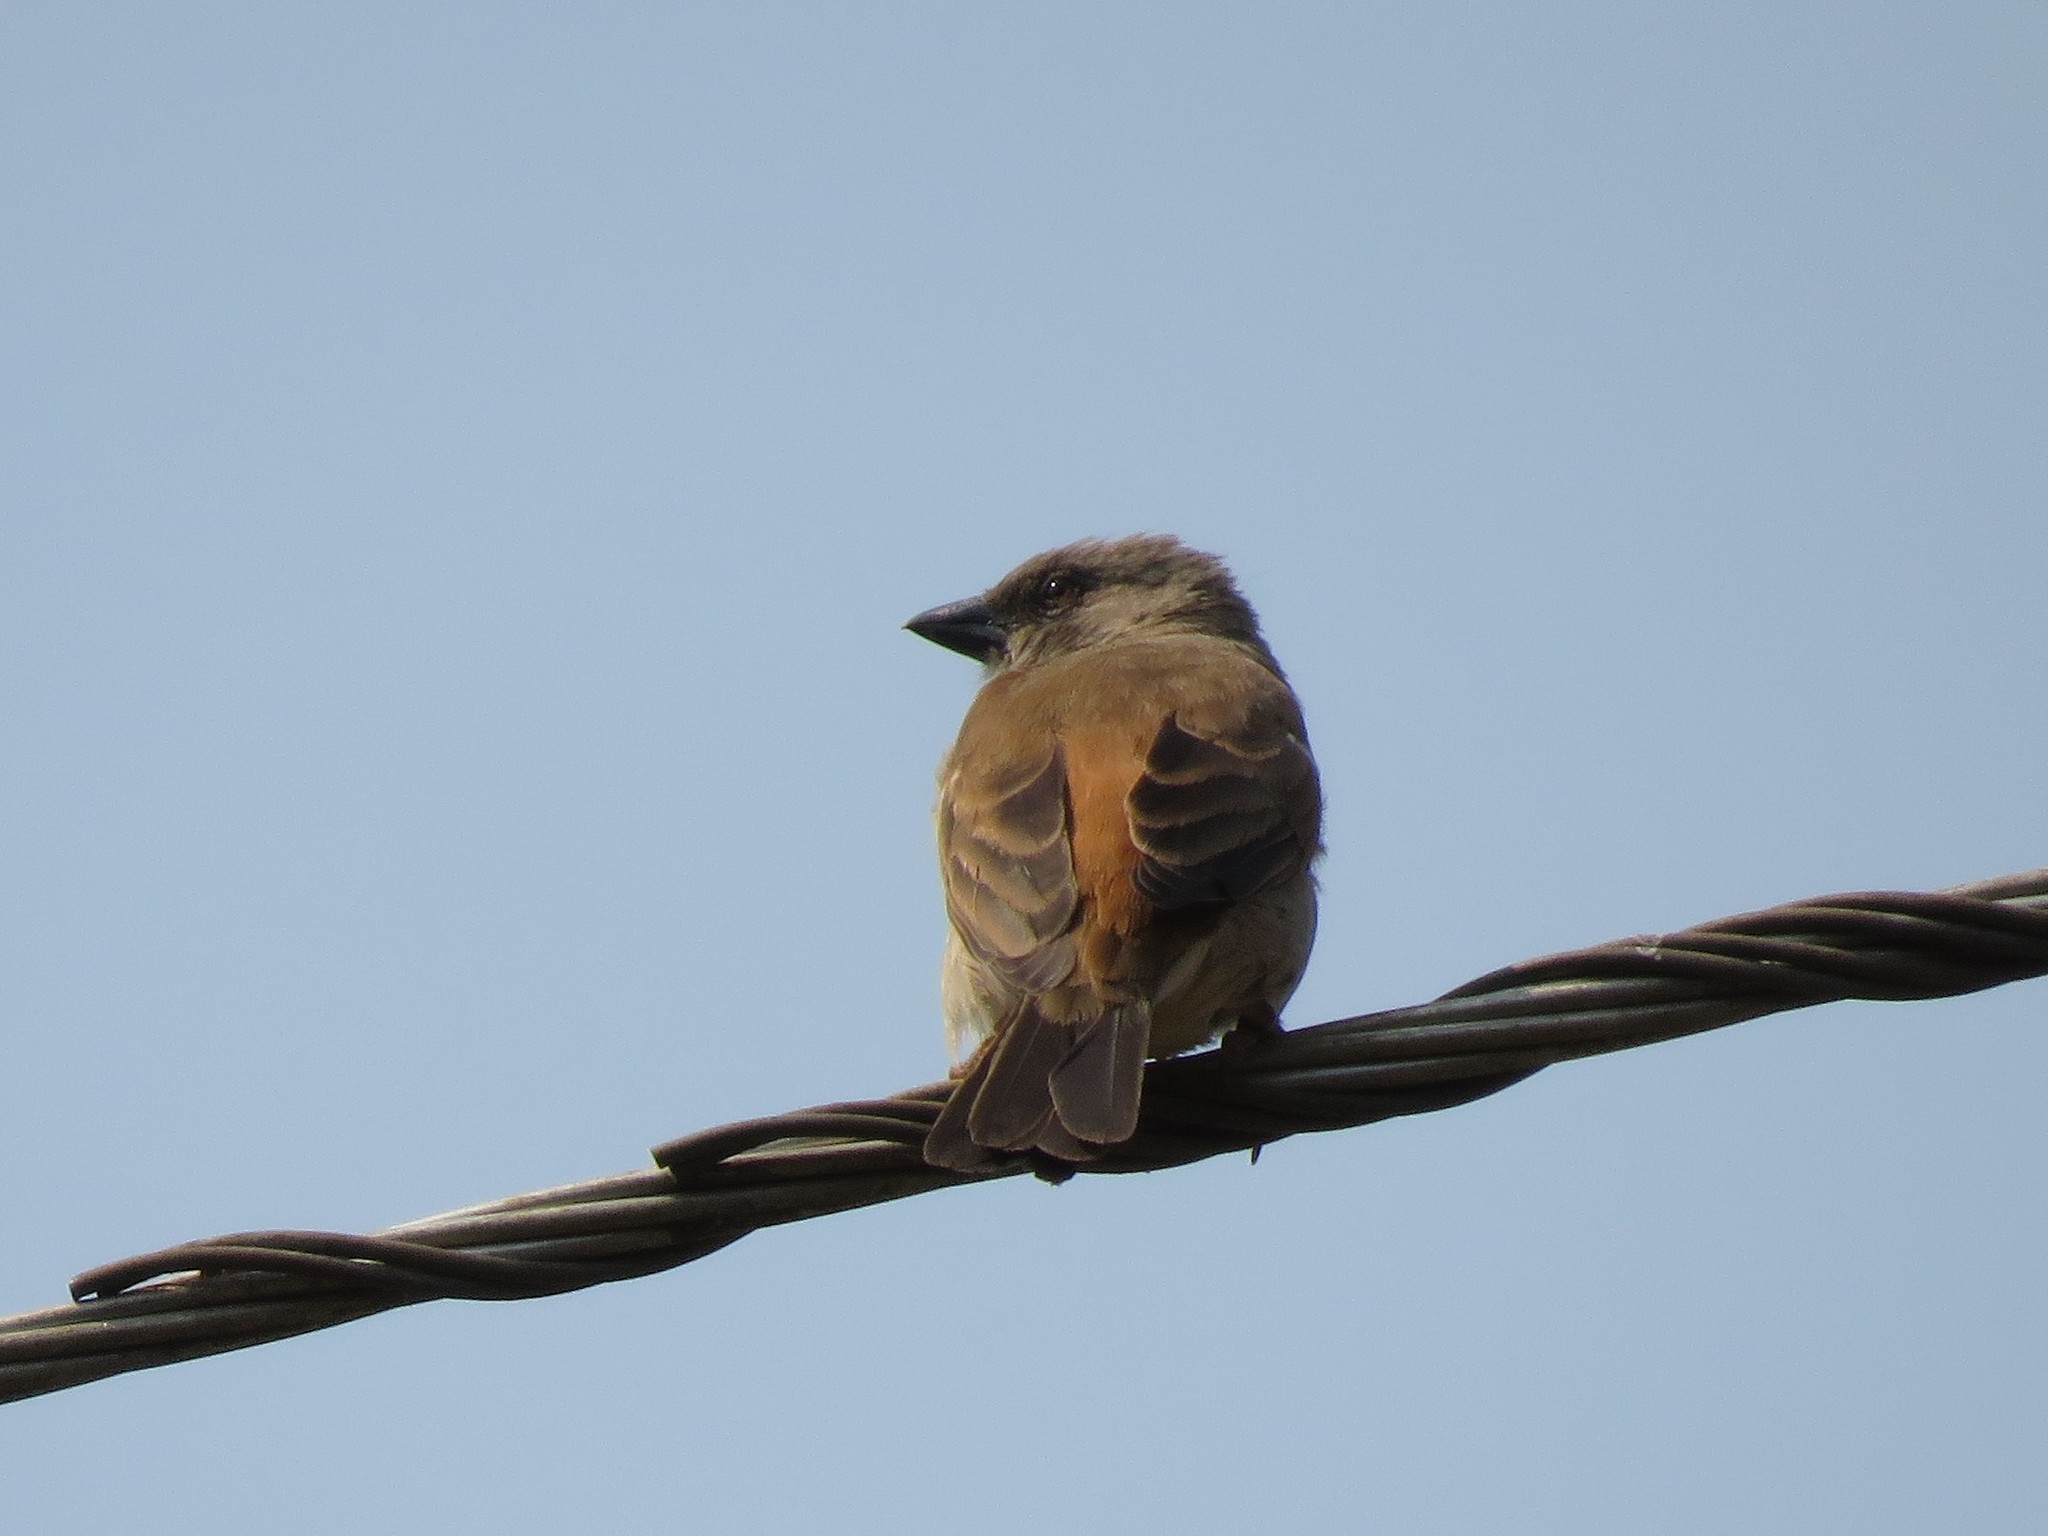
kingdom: Animalia
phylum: Chordata
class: Aves
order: Passeriformes
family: Passeridae
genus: Passer
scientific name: Passer griseus
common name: Northern grey-headed sparrow
